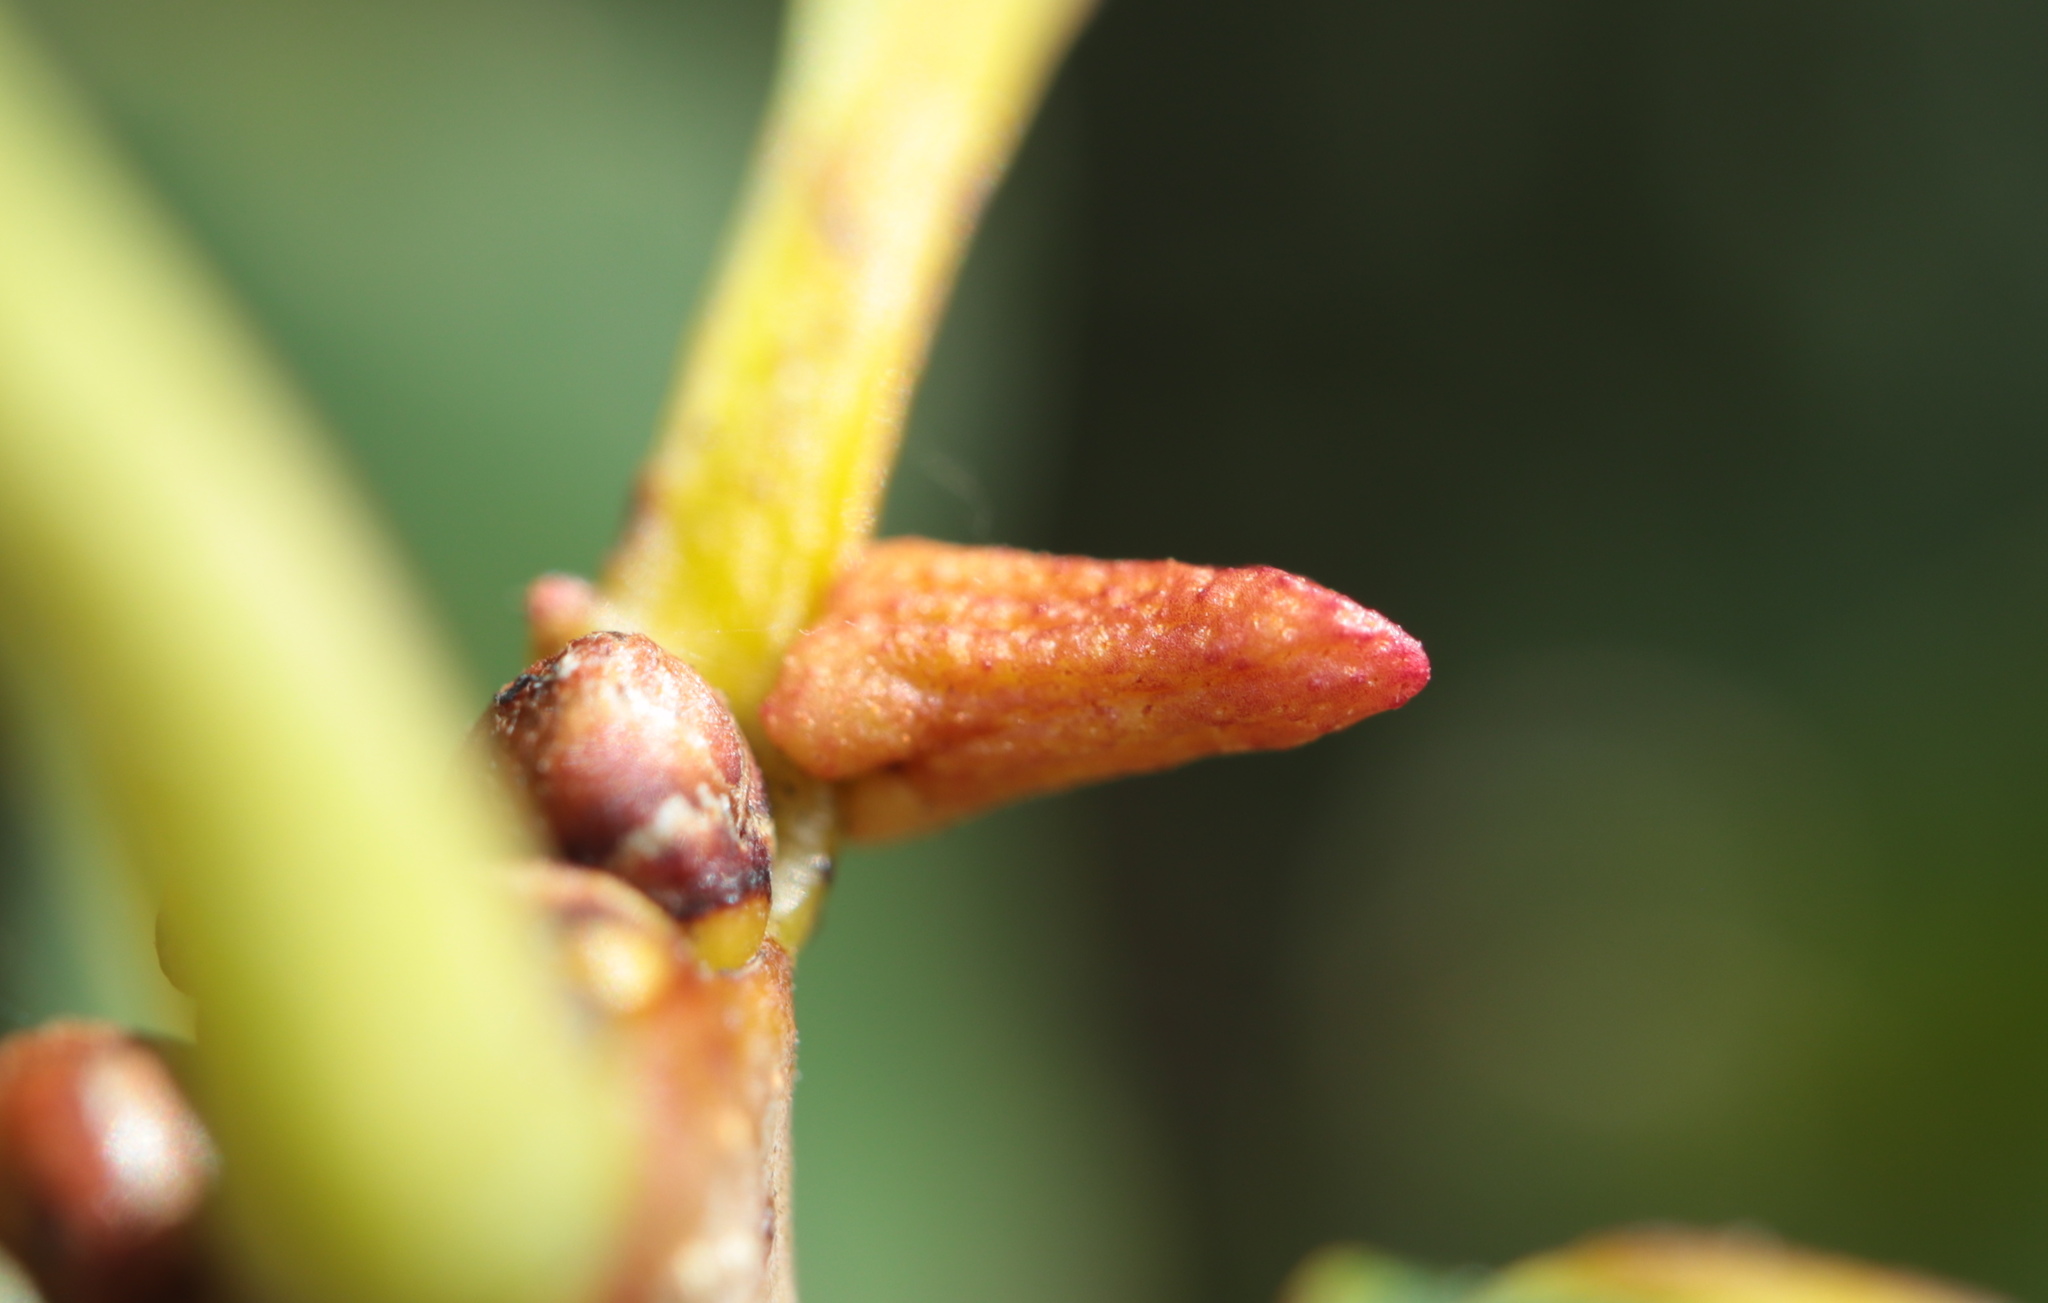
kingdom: Animalia
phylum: Arthropoda
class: Insecta
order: Hymenoptera
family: Cynipidae
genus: Zopheroteras
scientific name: Zopheroteras
